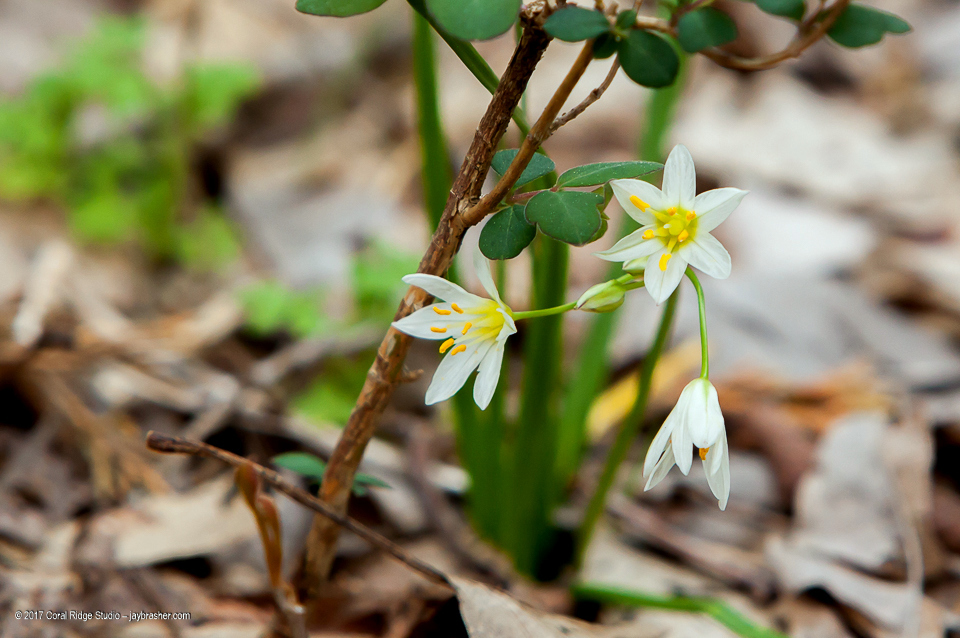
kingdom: Plantae
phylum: Tracheophyta
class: Liliopsida
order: Asparagales
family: Amaryllidaceae
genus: Nothoscordum
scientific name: Nothoscordum bivalve
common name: Crow-poison
